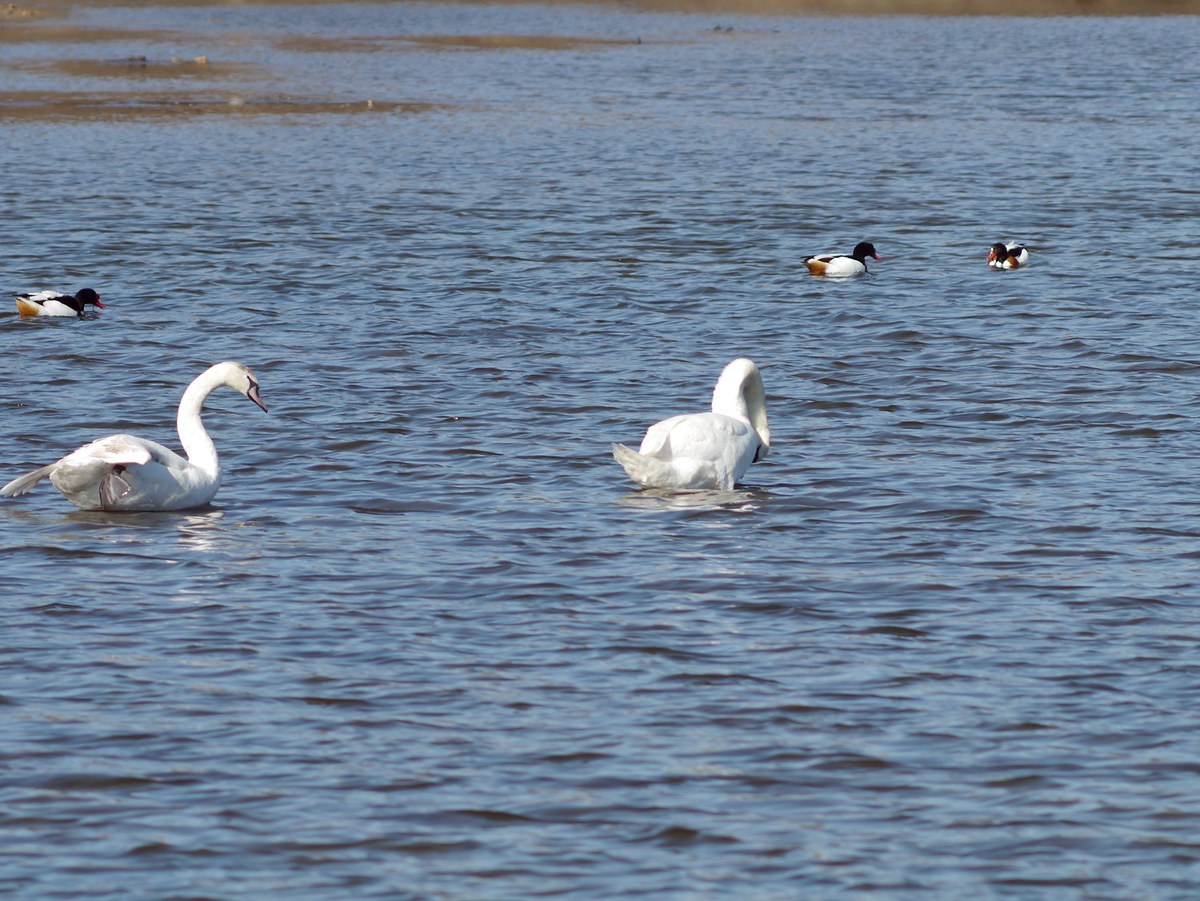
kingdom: Animalia
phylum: Chordata
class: Aves
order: Anseriformes
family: Anatidae
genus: Cygnus
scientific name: Cygnus olor
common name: Mute swan
